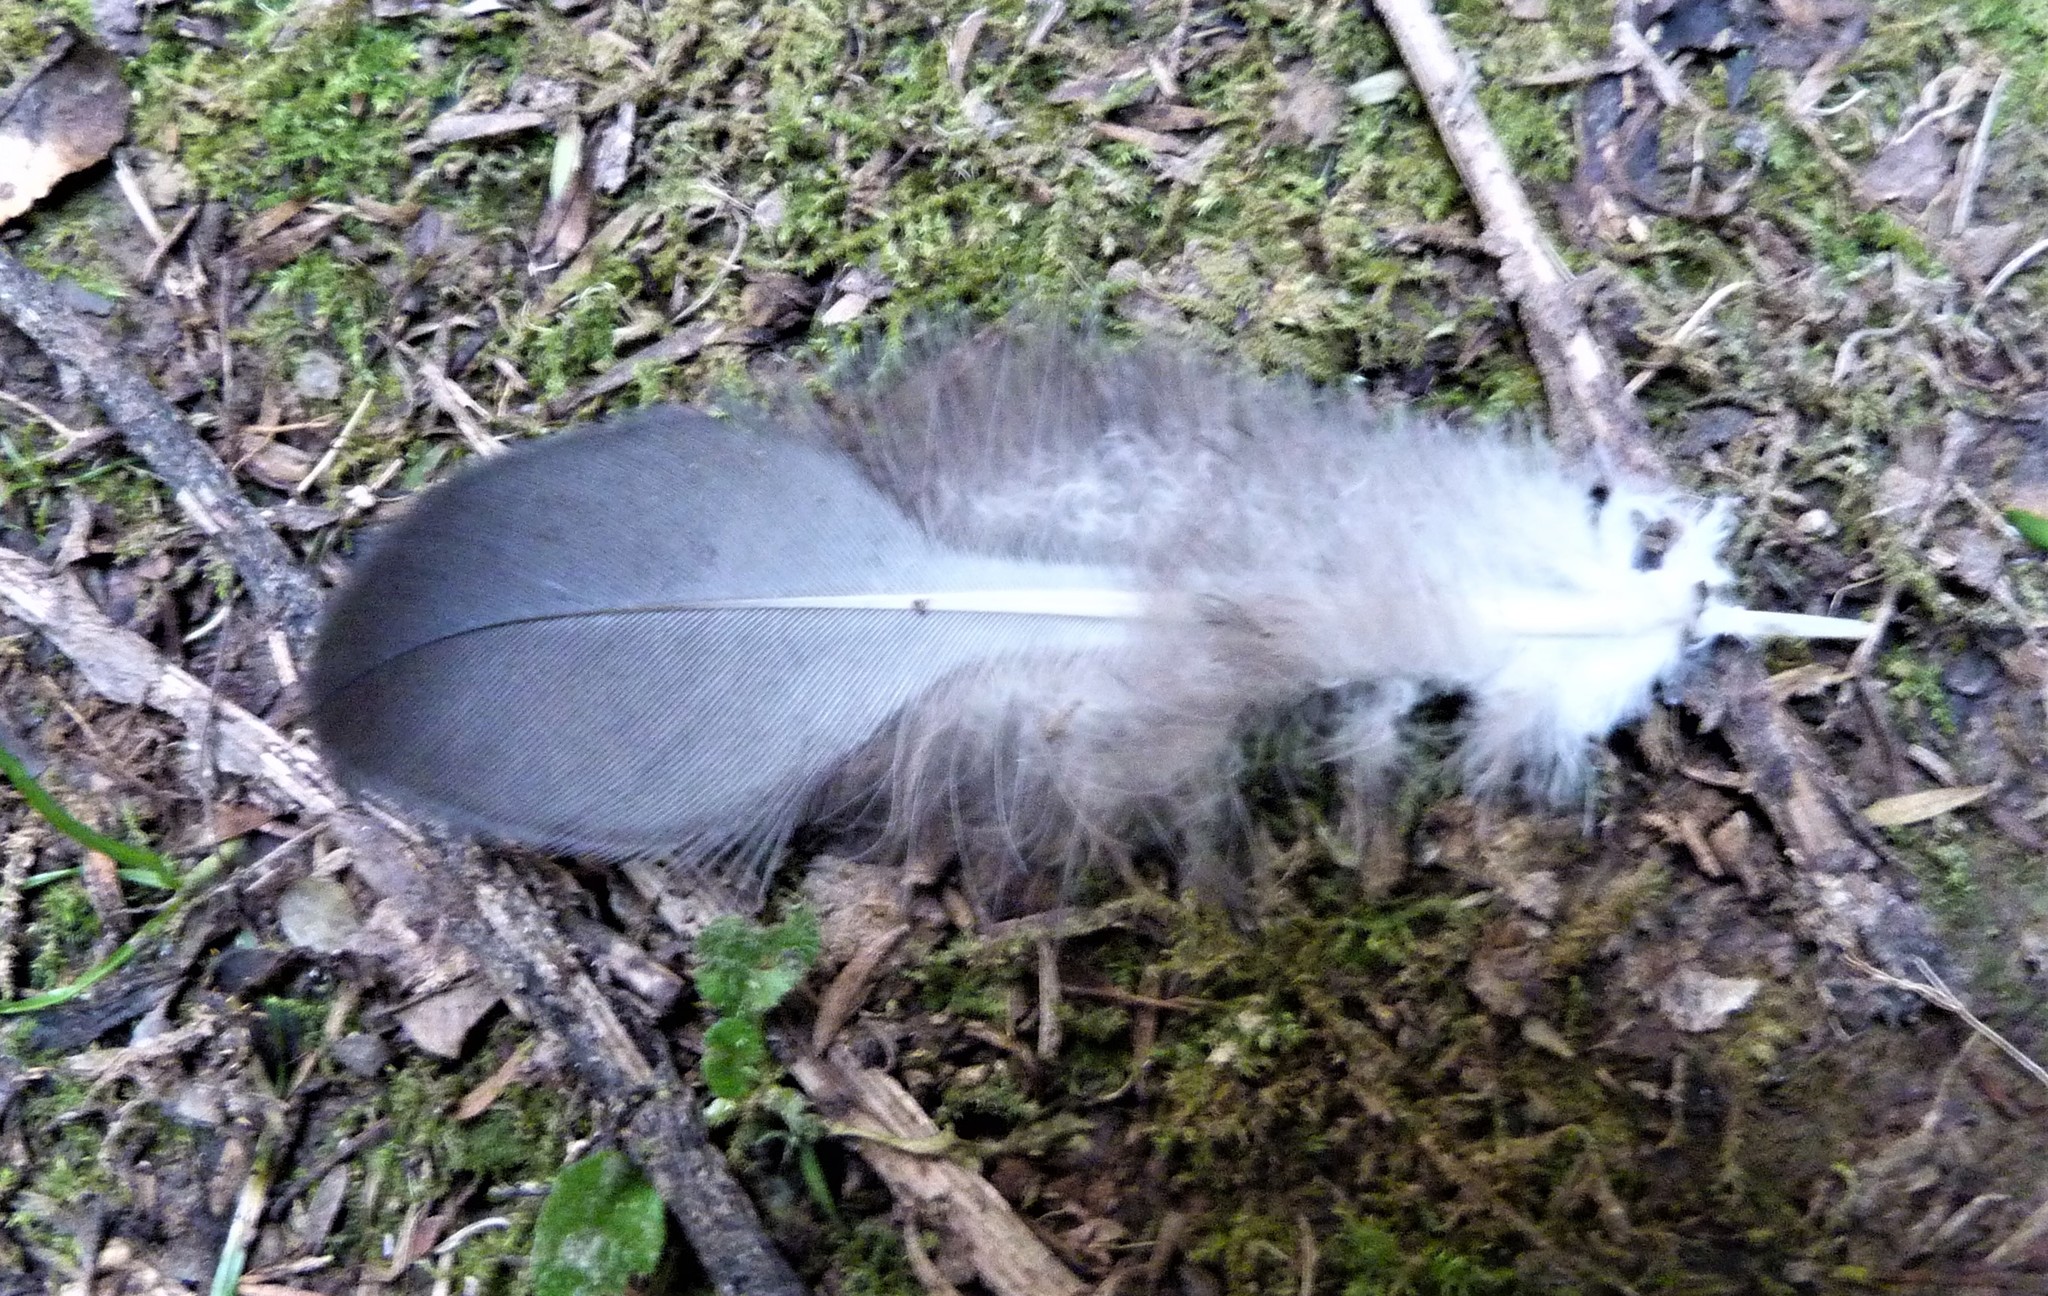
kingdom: Animalia
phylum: Chordata
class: Aves
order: Columbiformes
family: Columbidae
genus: Hemiphaga
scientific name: Hemiphaga novaeseelandiae
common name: New zealand pigeon
